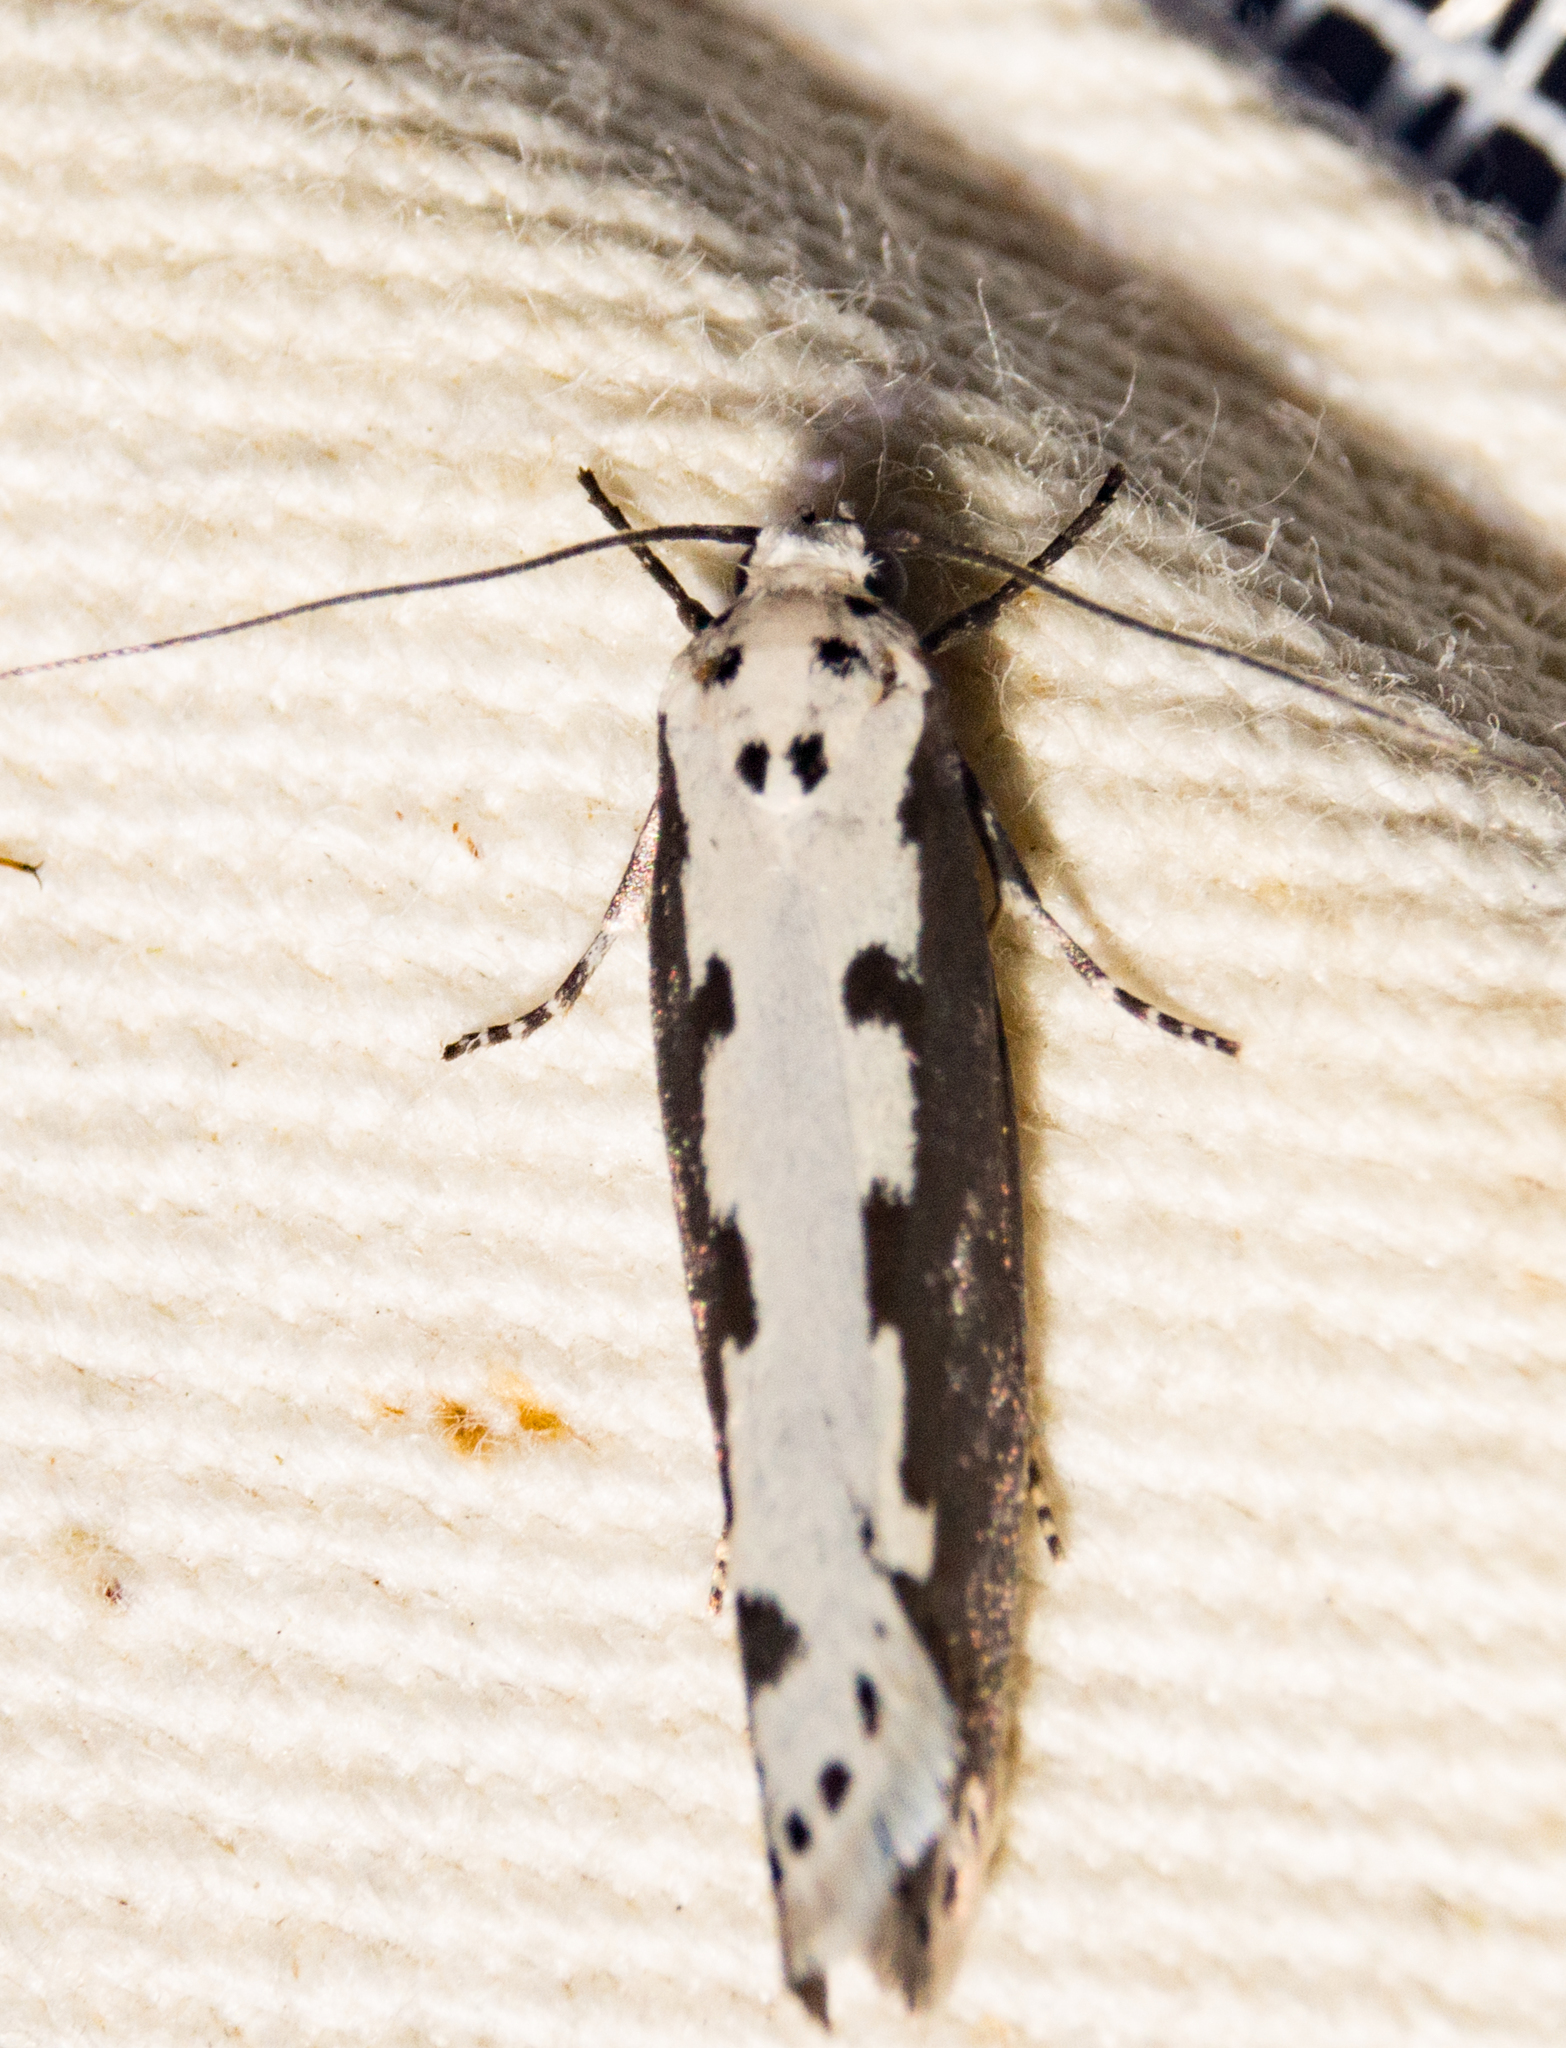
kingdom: Animalia
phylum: Arthropoda
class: Insecta
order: Lepidoptera
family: Ethmiidae
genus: Ethmia
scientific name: Ethmia bipunctella
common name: Bordered ermel
